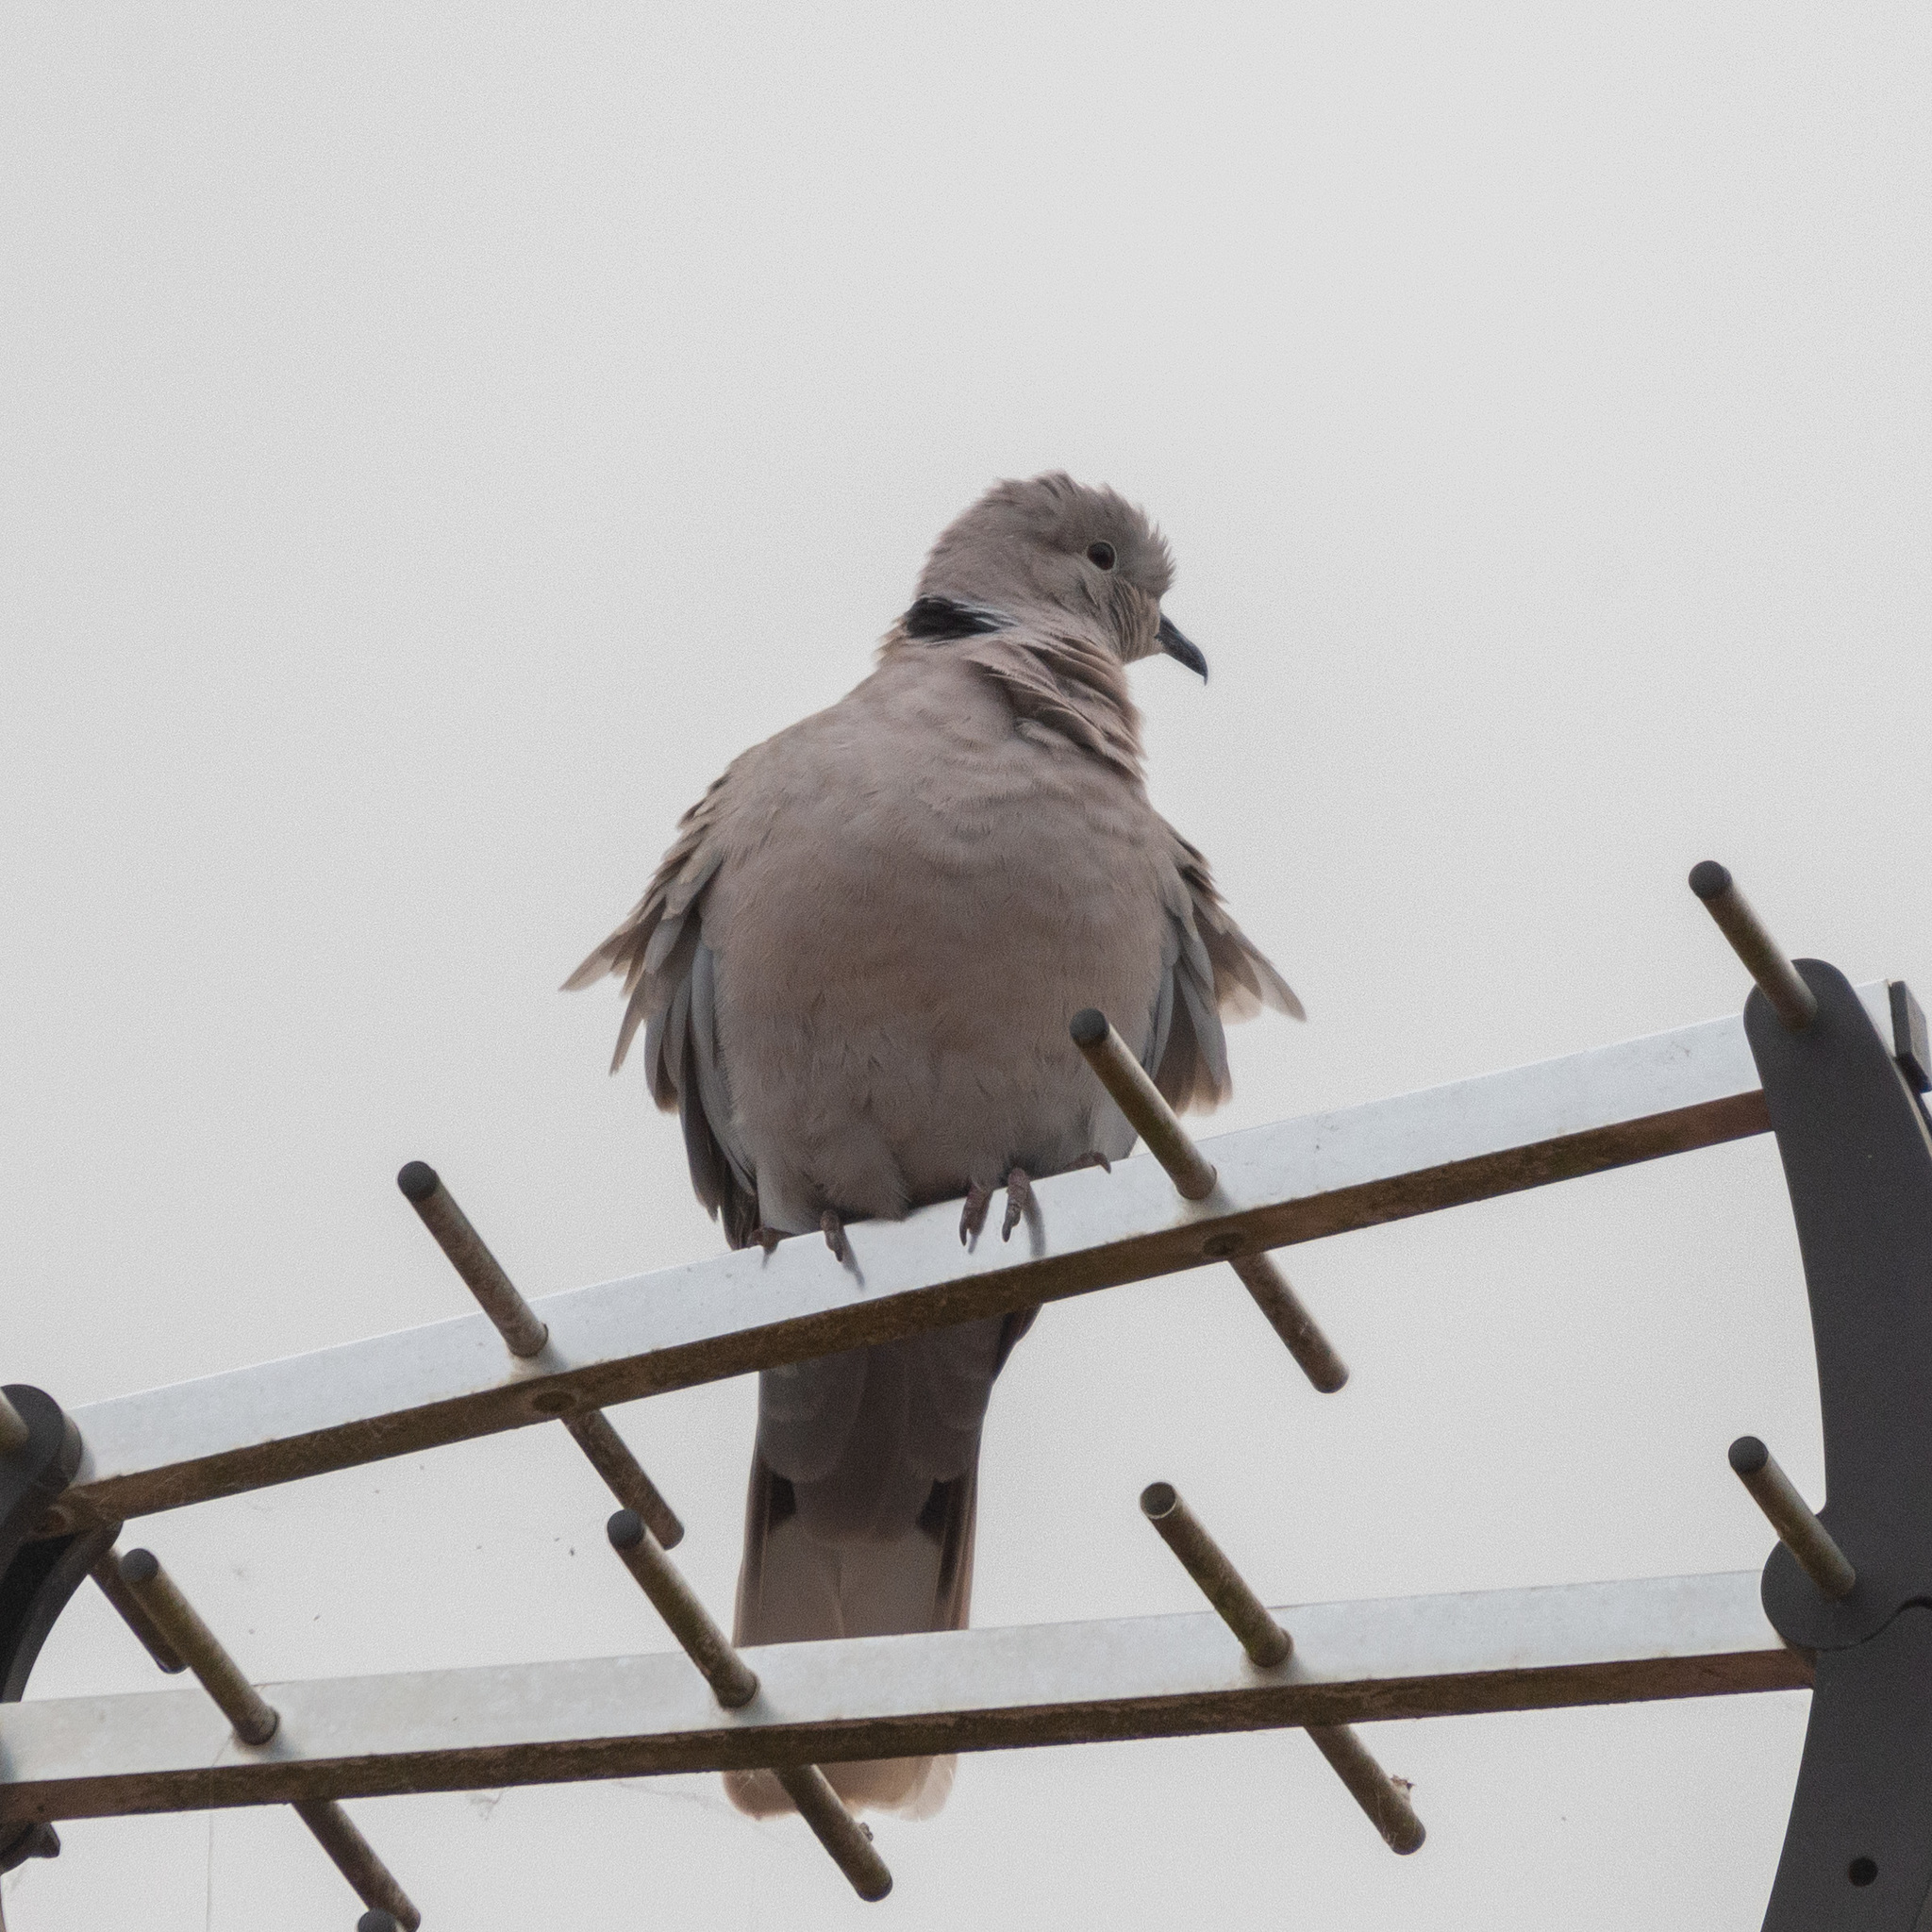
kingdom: Animalia
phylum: Chordata
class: Aves
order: Columbiformes
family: Columbidae
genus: Streptopelia
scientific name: Streptopelia decaocto
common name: Eurasian collared dove
